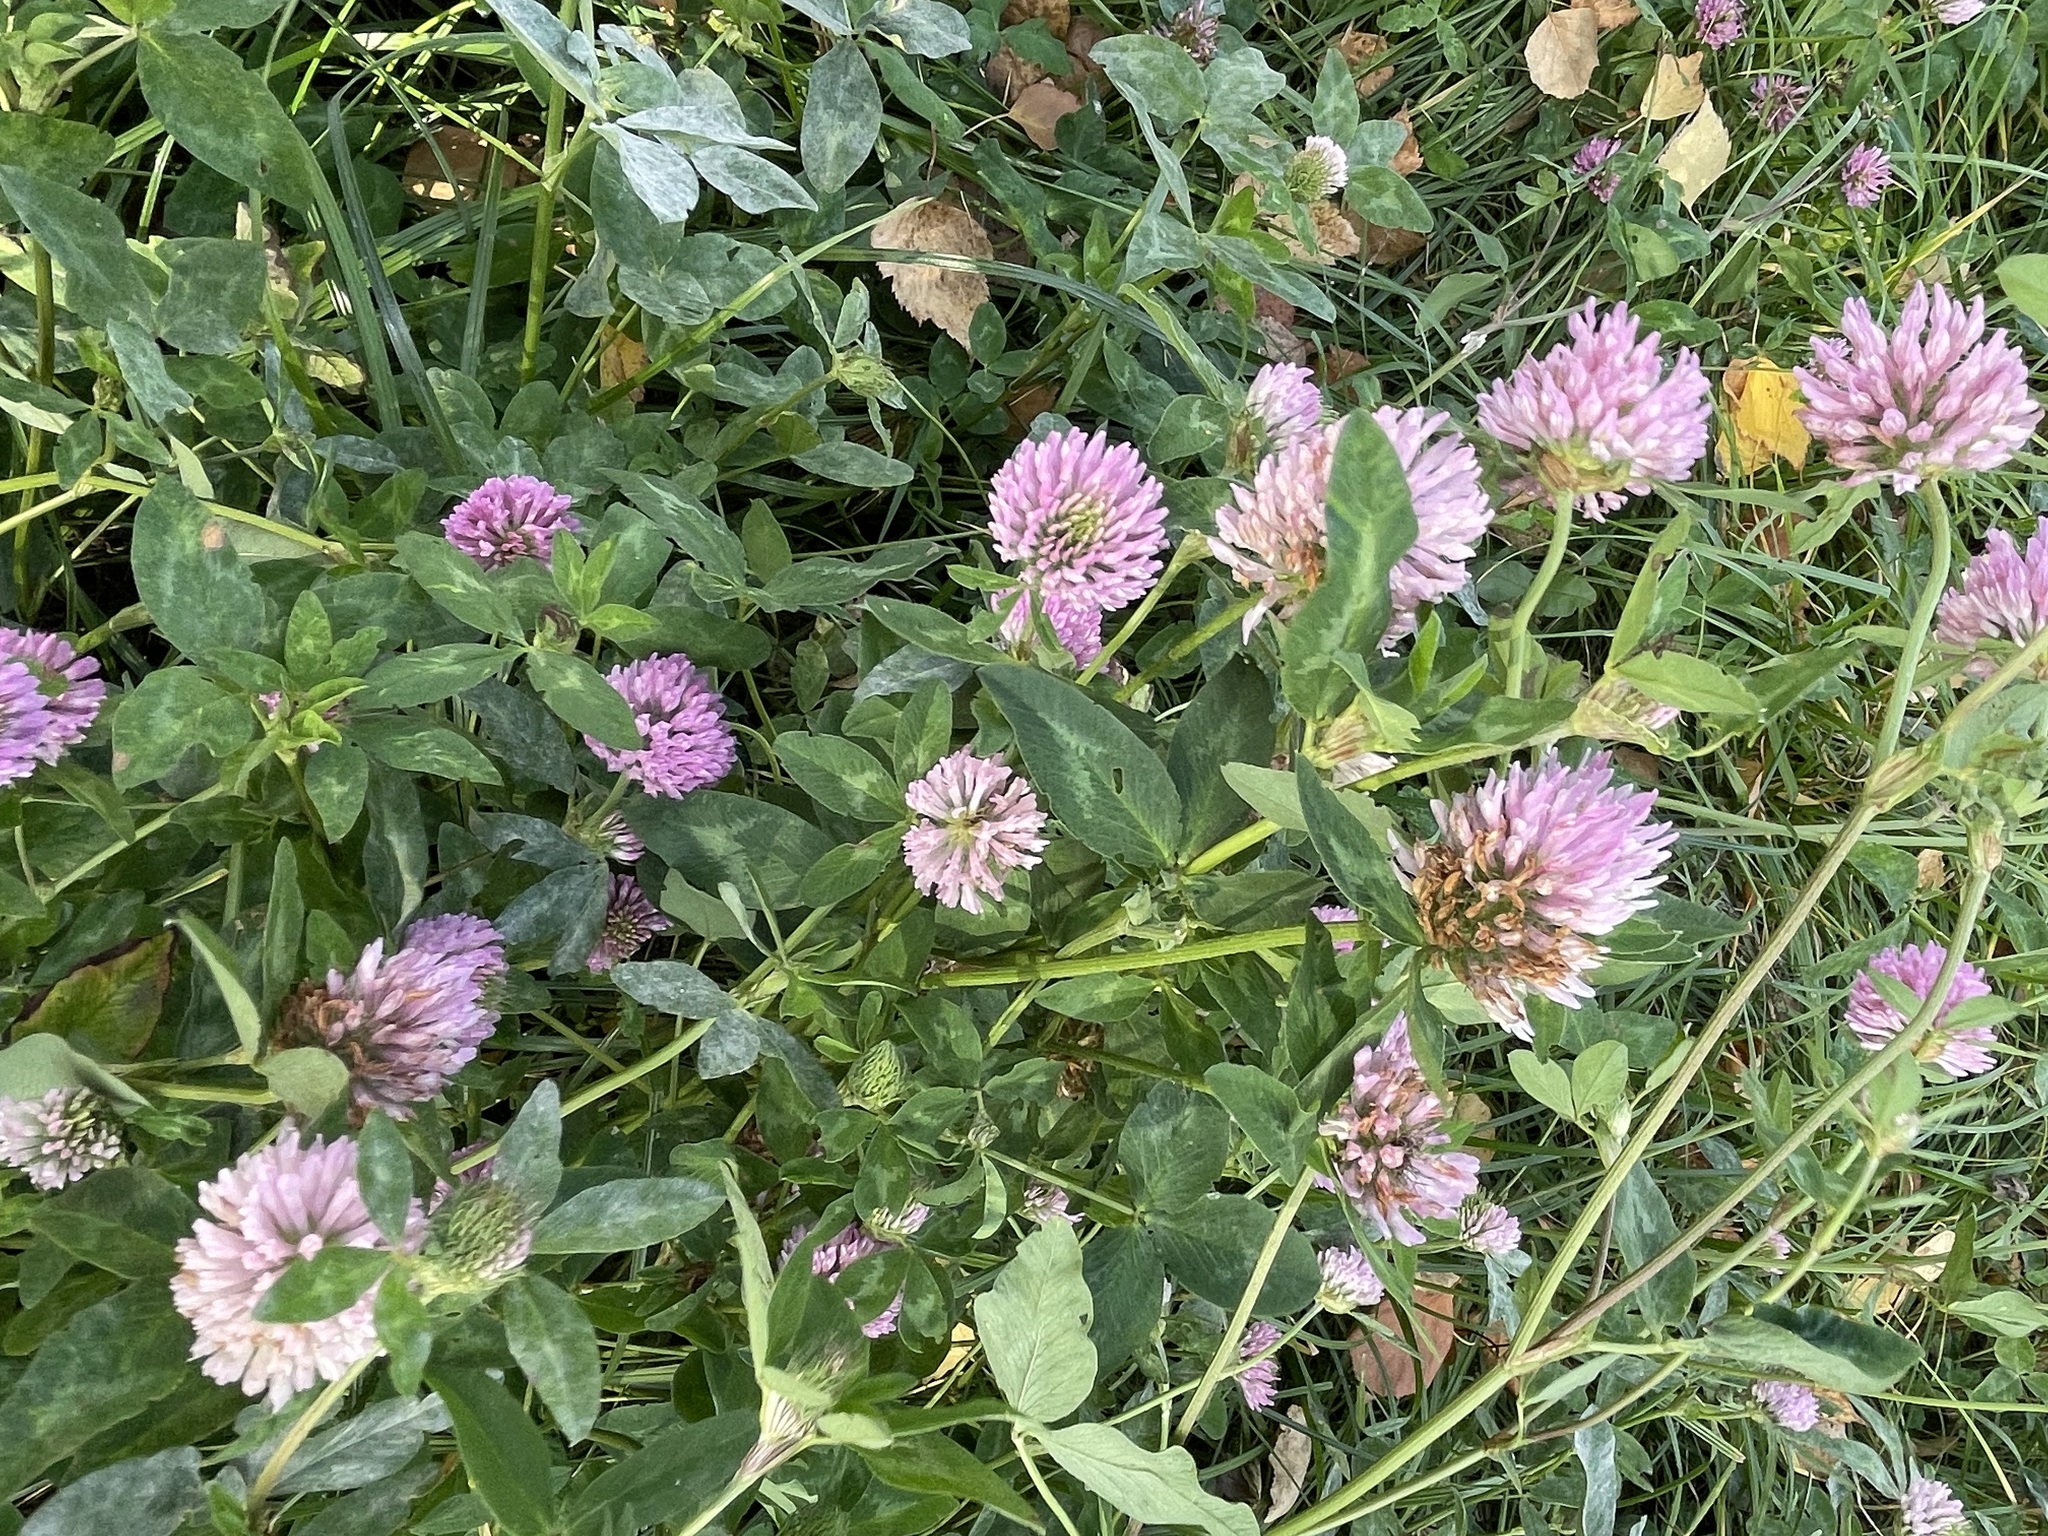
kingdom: Plantae
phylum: Tracheophyta
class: Magnoliopsida
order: Fabales
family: Fabaceae
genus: Trifolium
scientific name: Trifolium pratense
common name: Red clover
